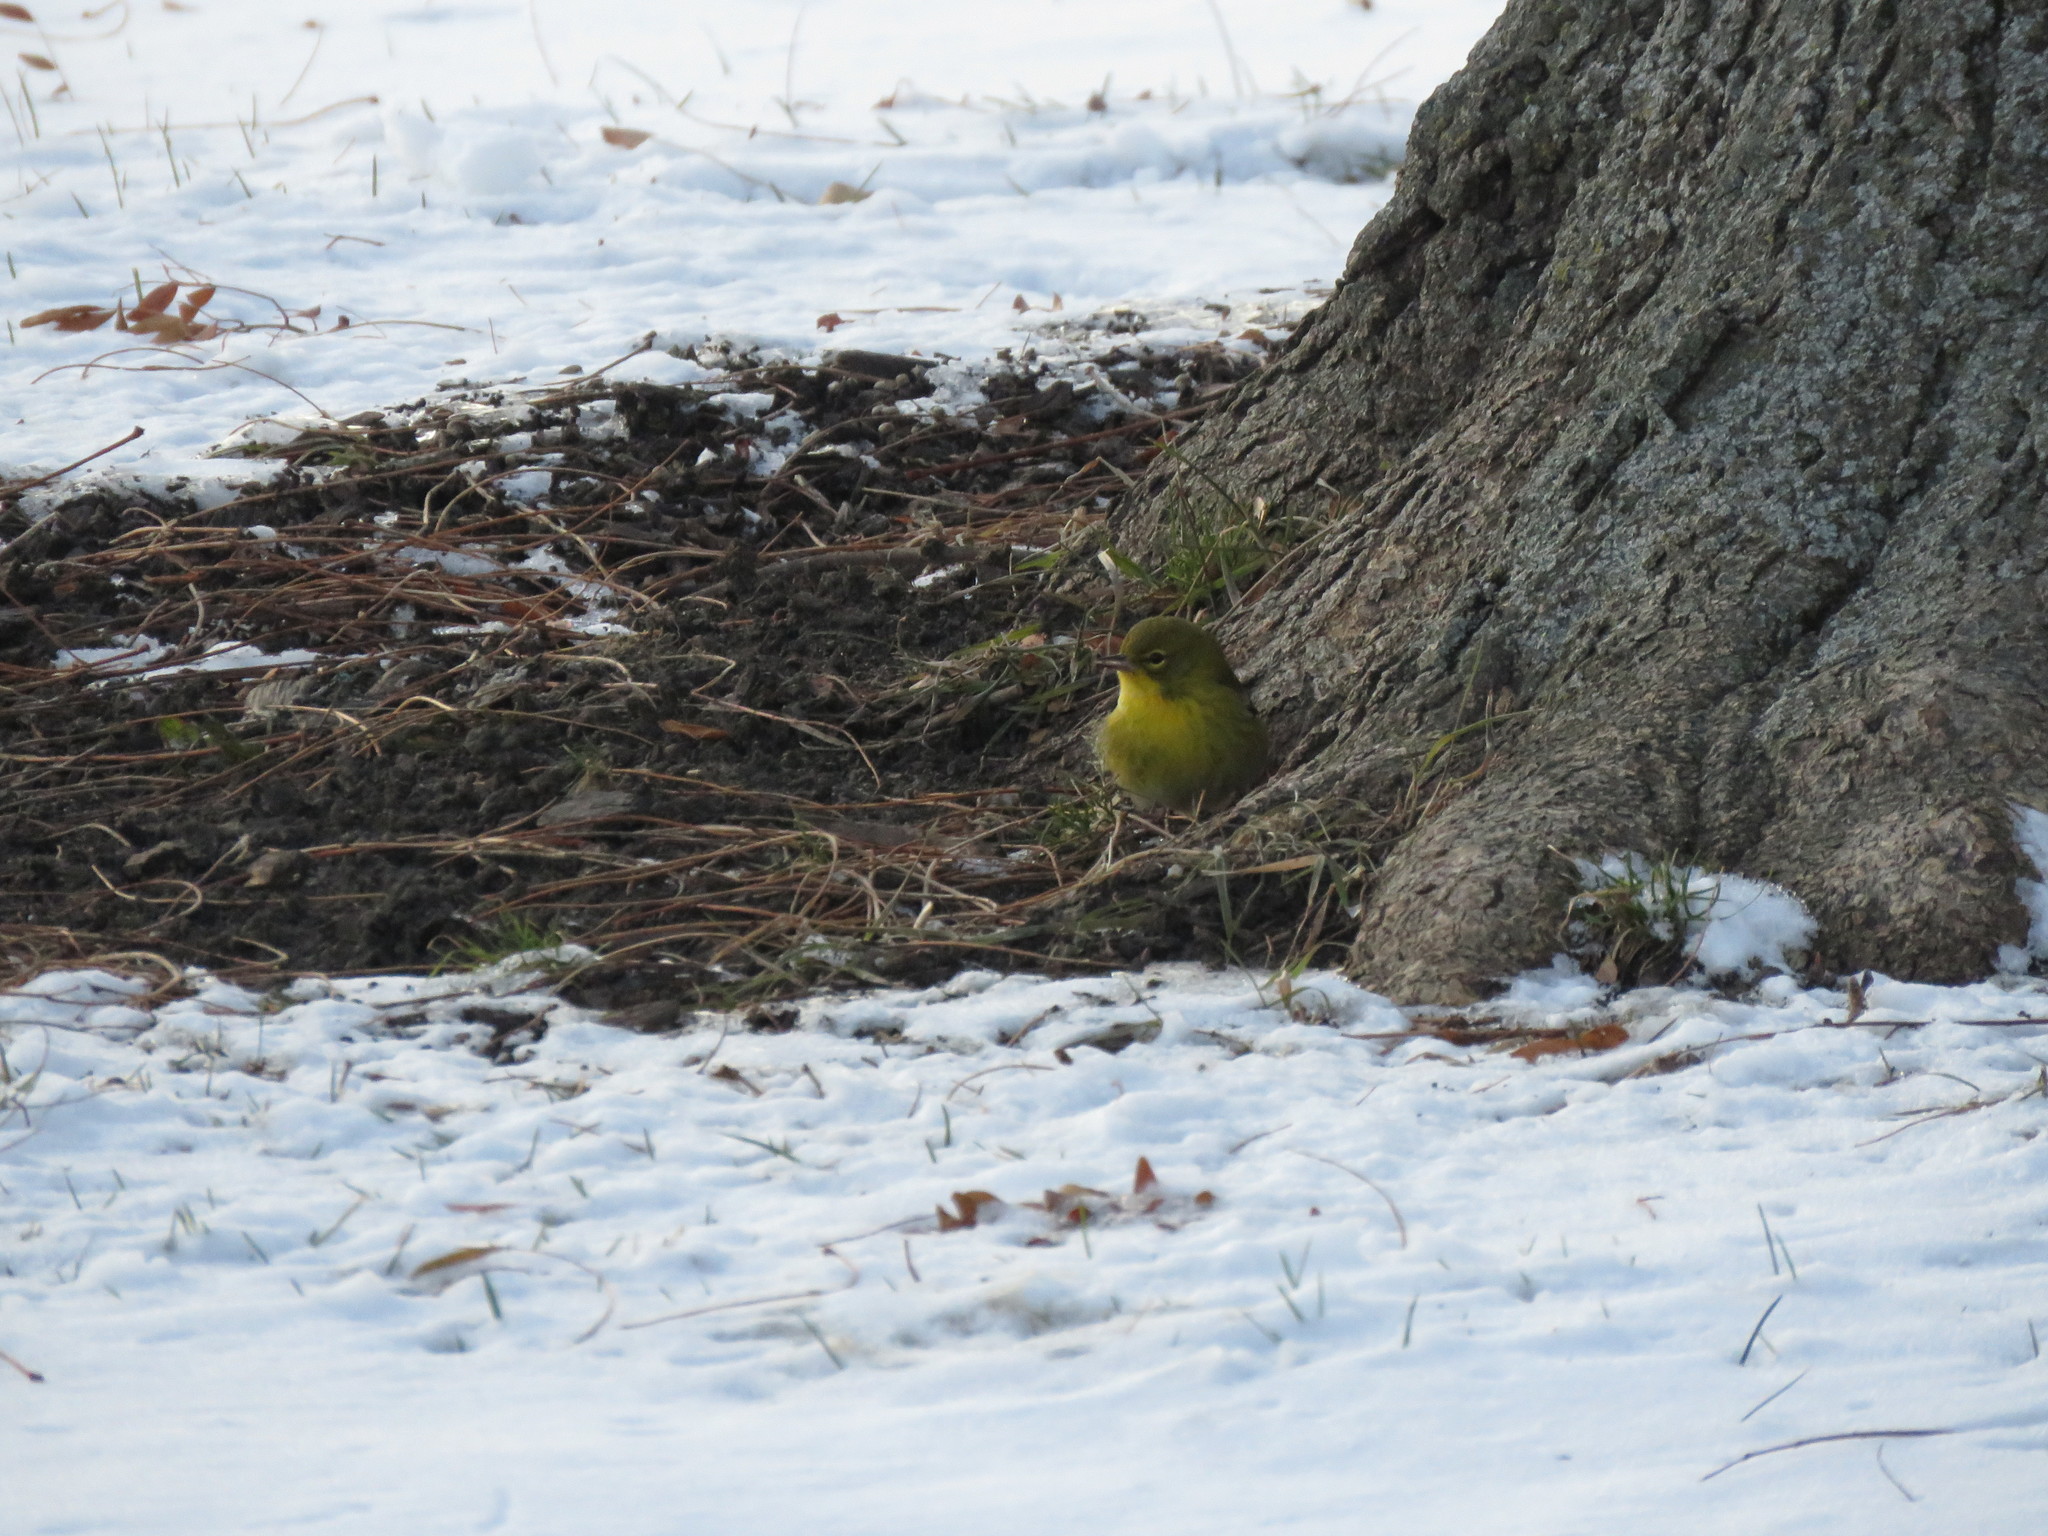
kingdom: Animalia
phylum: Chordata
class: Aves
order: Passeriformes
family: Parulidae
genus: Setophaga
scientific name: Setophaga pinus
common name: Pine warbler
